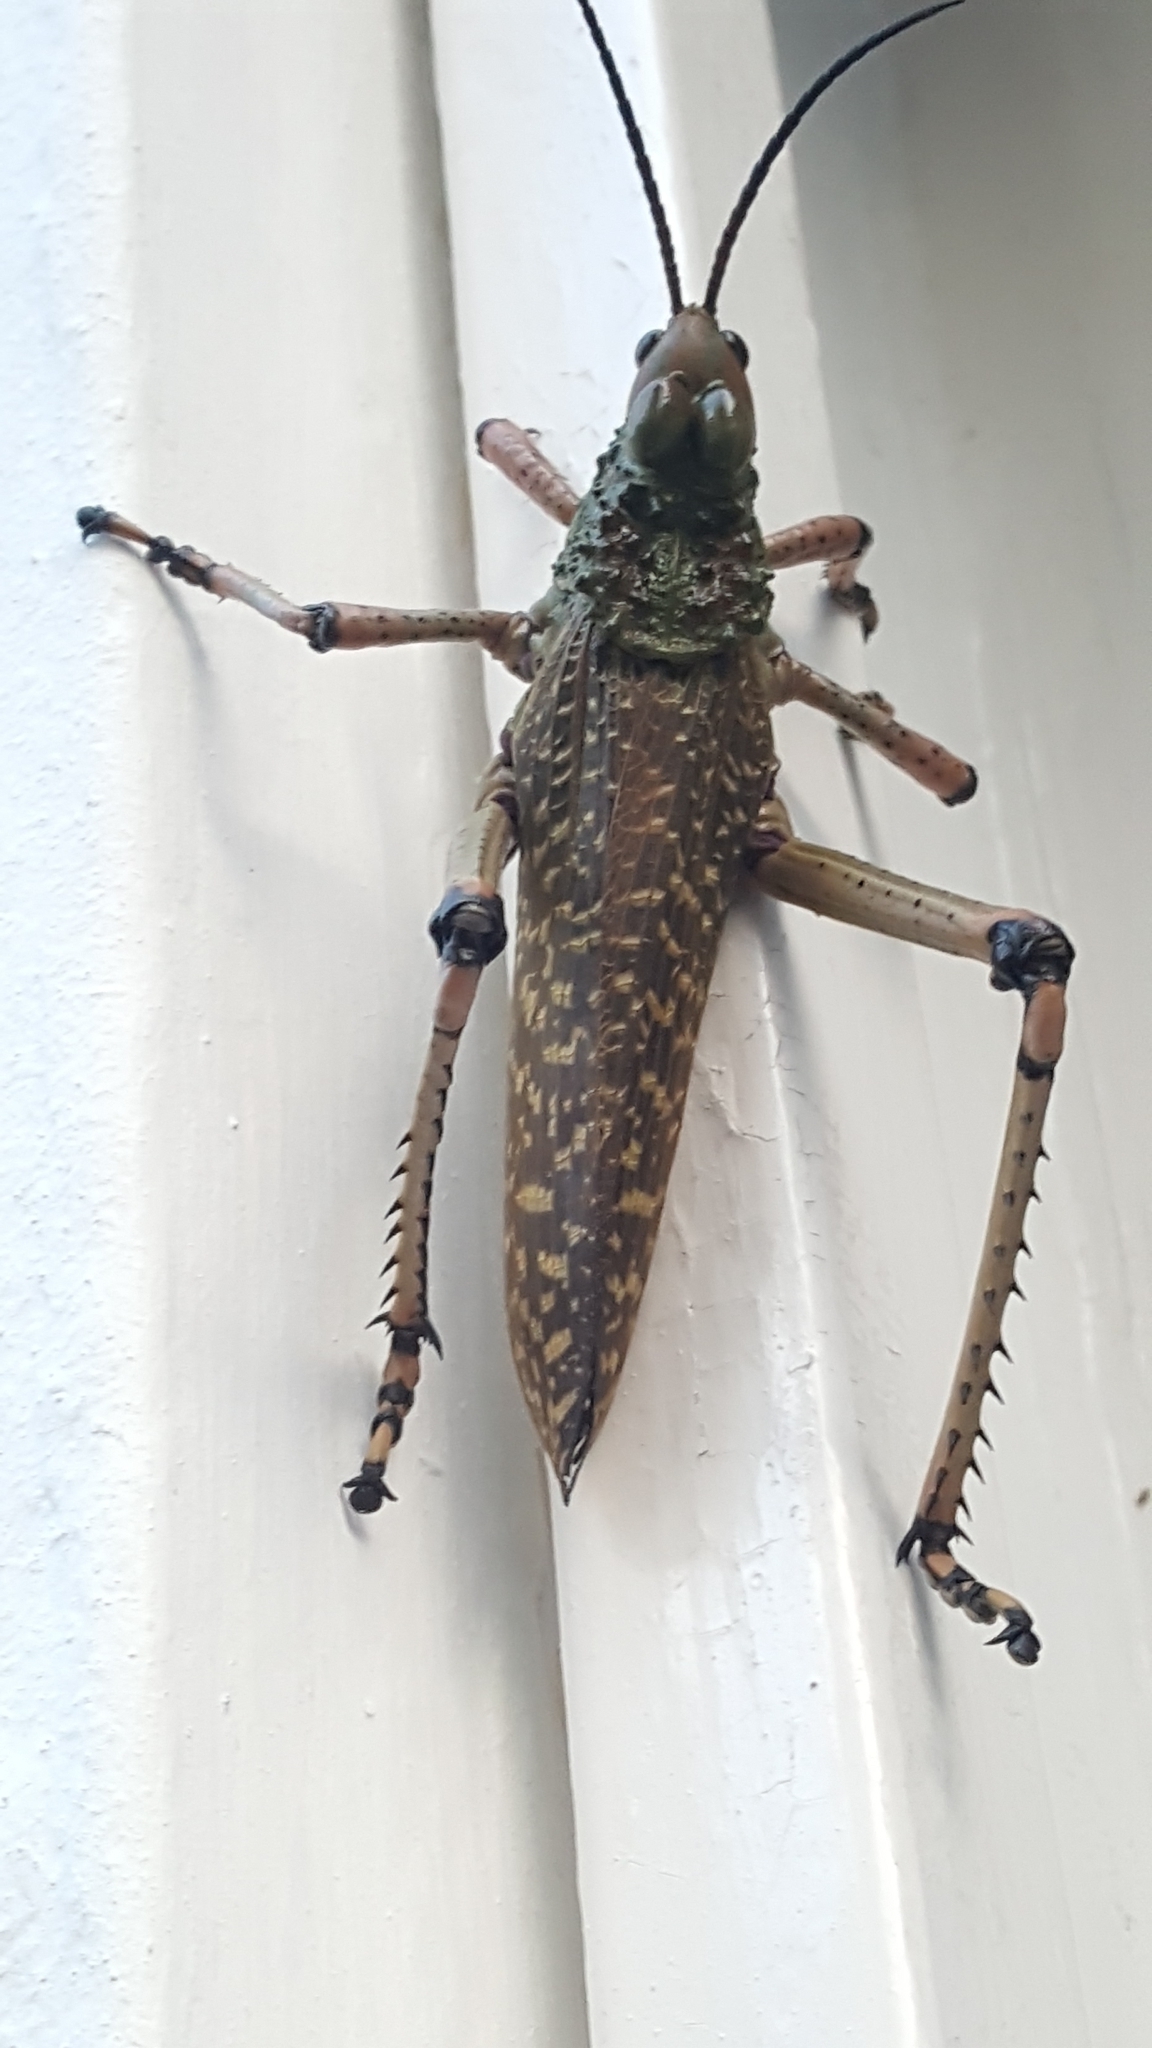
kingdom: Animalia
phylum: Arthropoda
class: Insecta
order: Orthoptera
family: Pyrgomorphidae
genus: Phymateus
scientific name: Phymateus leprosus
